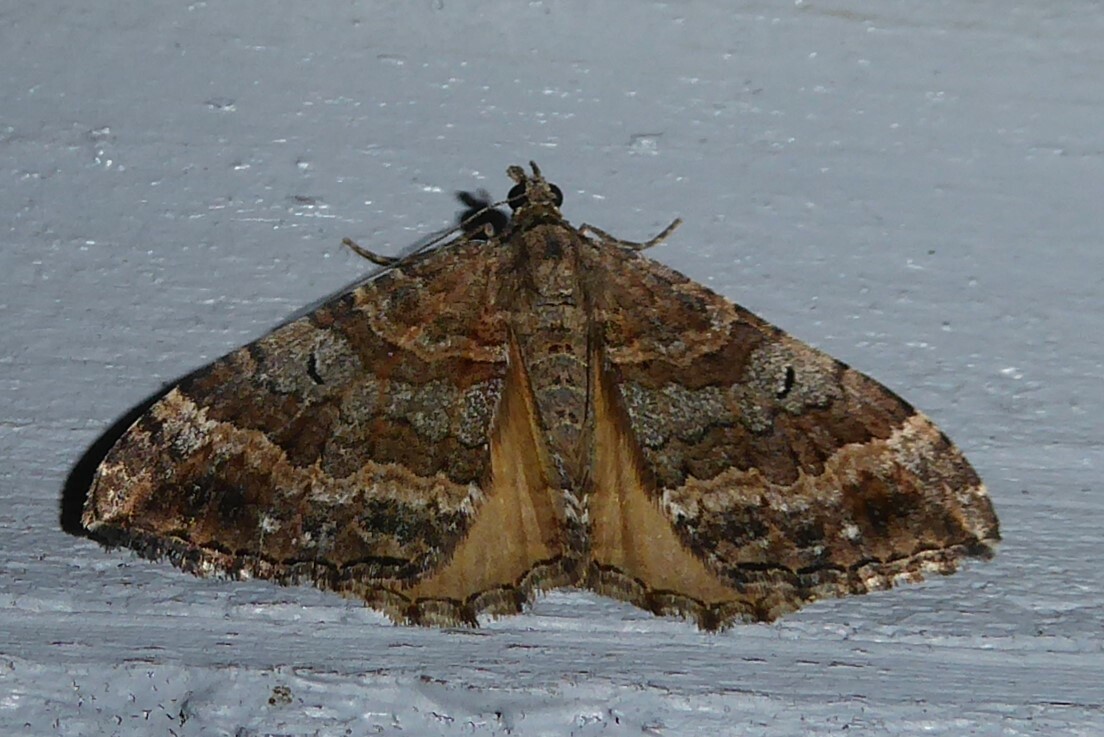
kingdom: Animalia
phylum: Arthropoda
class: Insecta
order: Lepidoptera
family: Geometridae
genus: Hydriomena
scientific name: Hydriomena deltoidata
